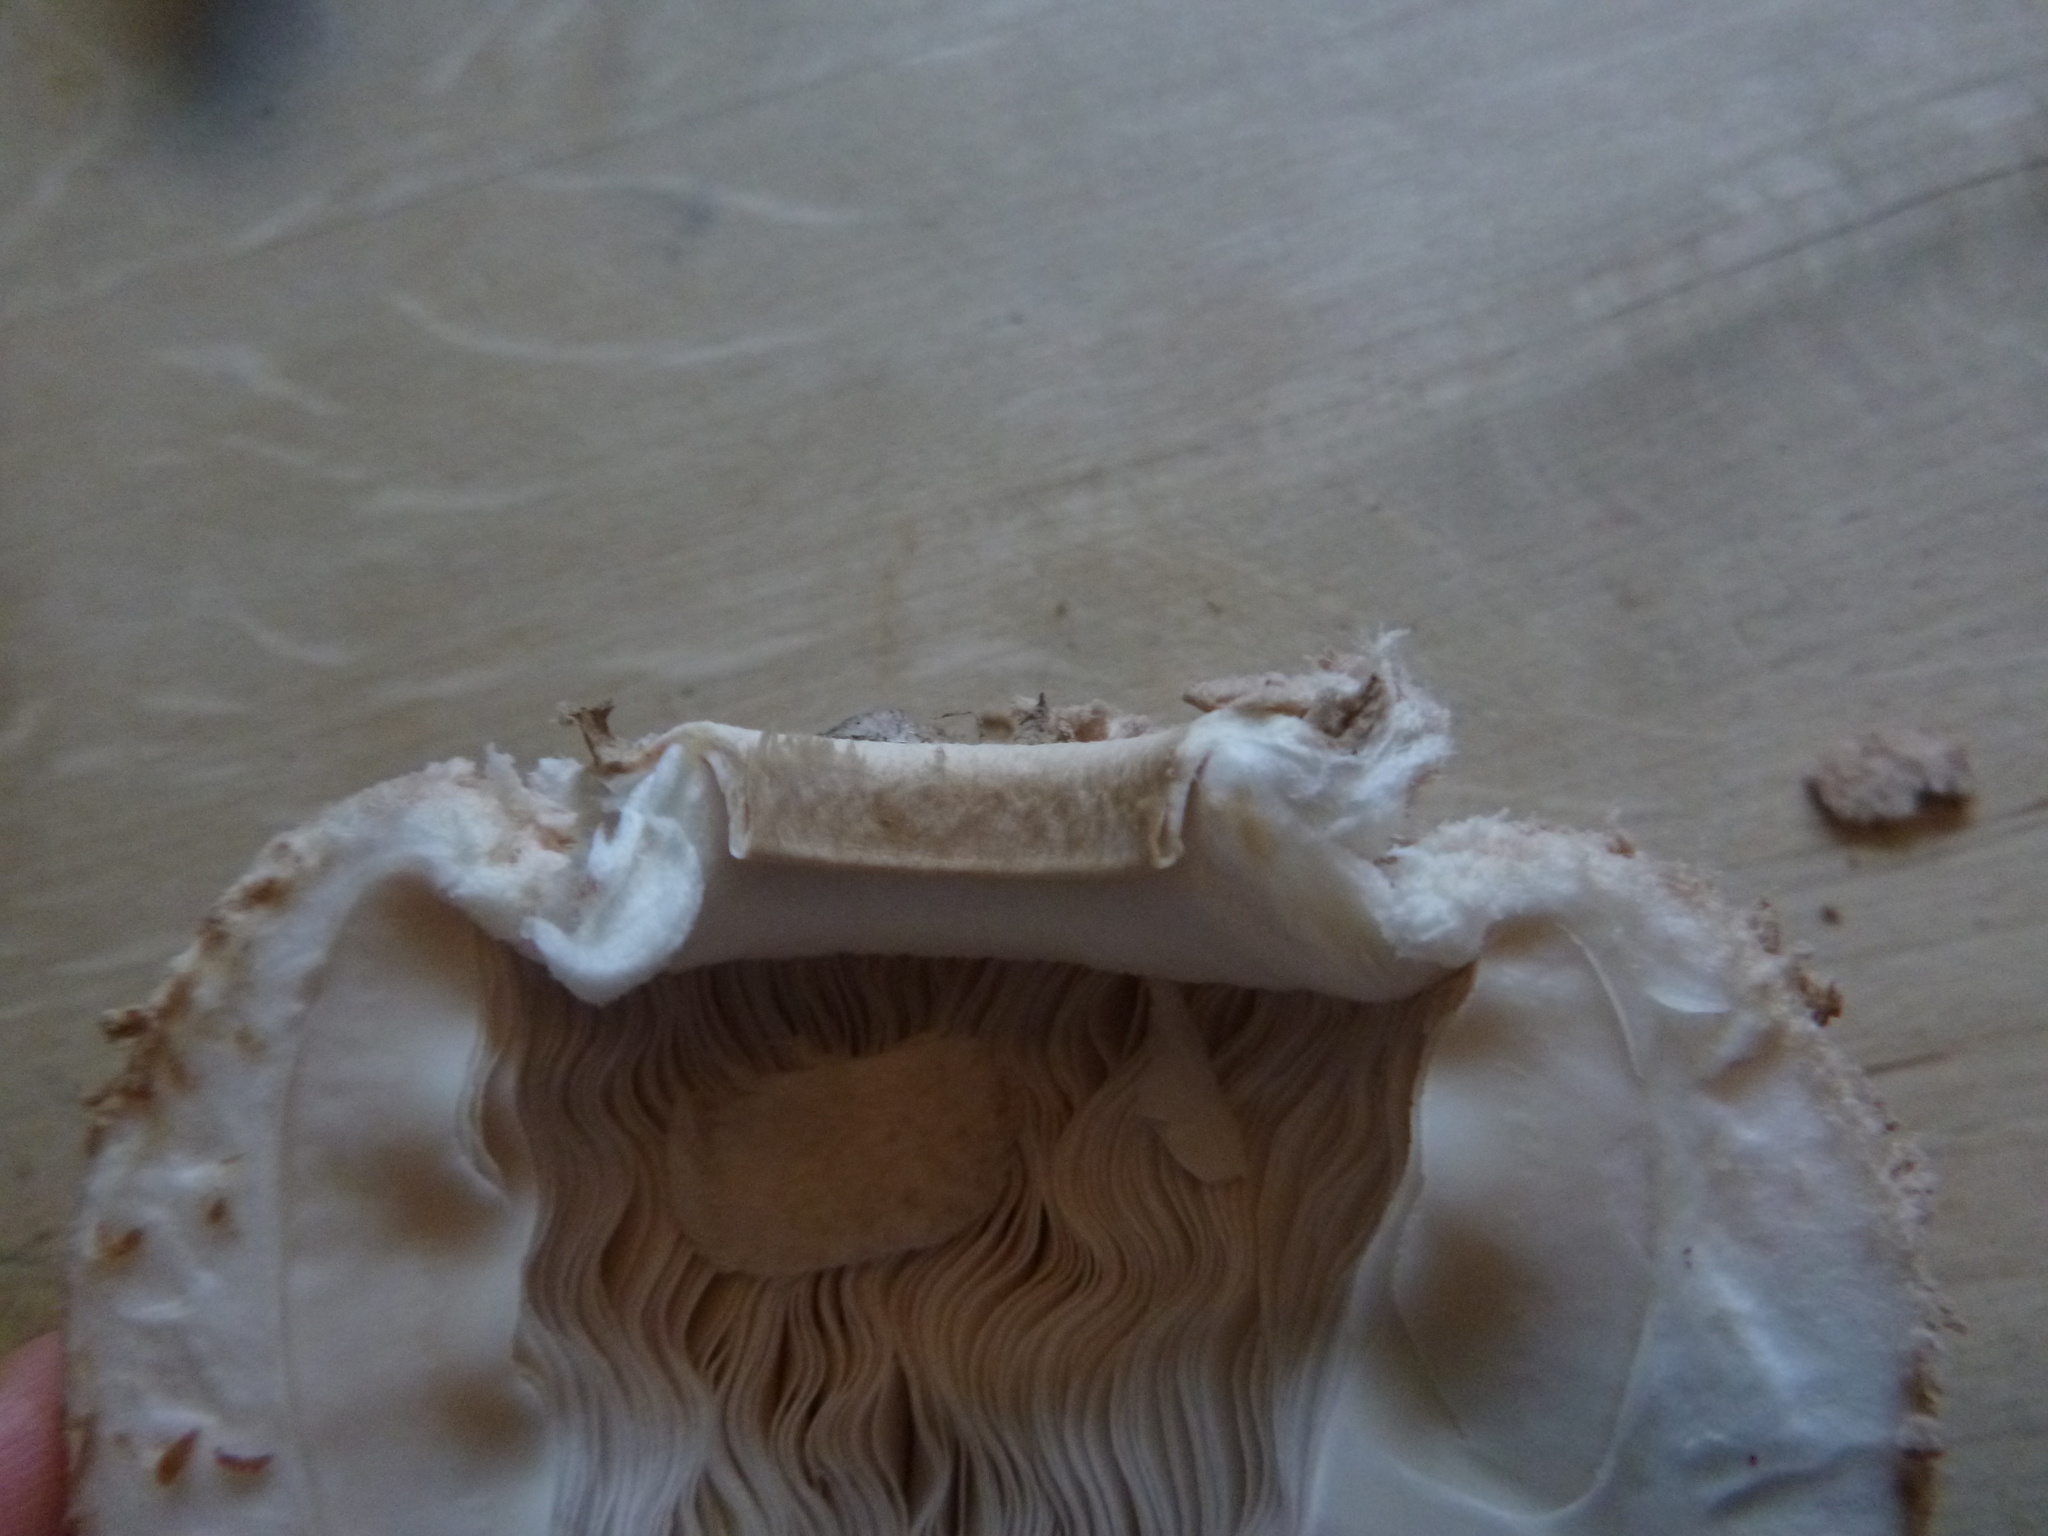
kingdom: Fungi
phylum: Basidiomycota
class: Agaricomycetes
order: Agaricales
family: Agaricaceae
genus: Macrolepiota
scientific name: Macrolepiota procera
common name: Parasol
